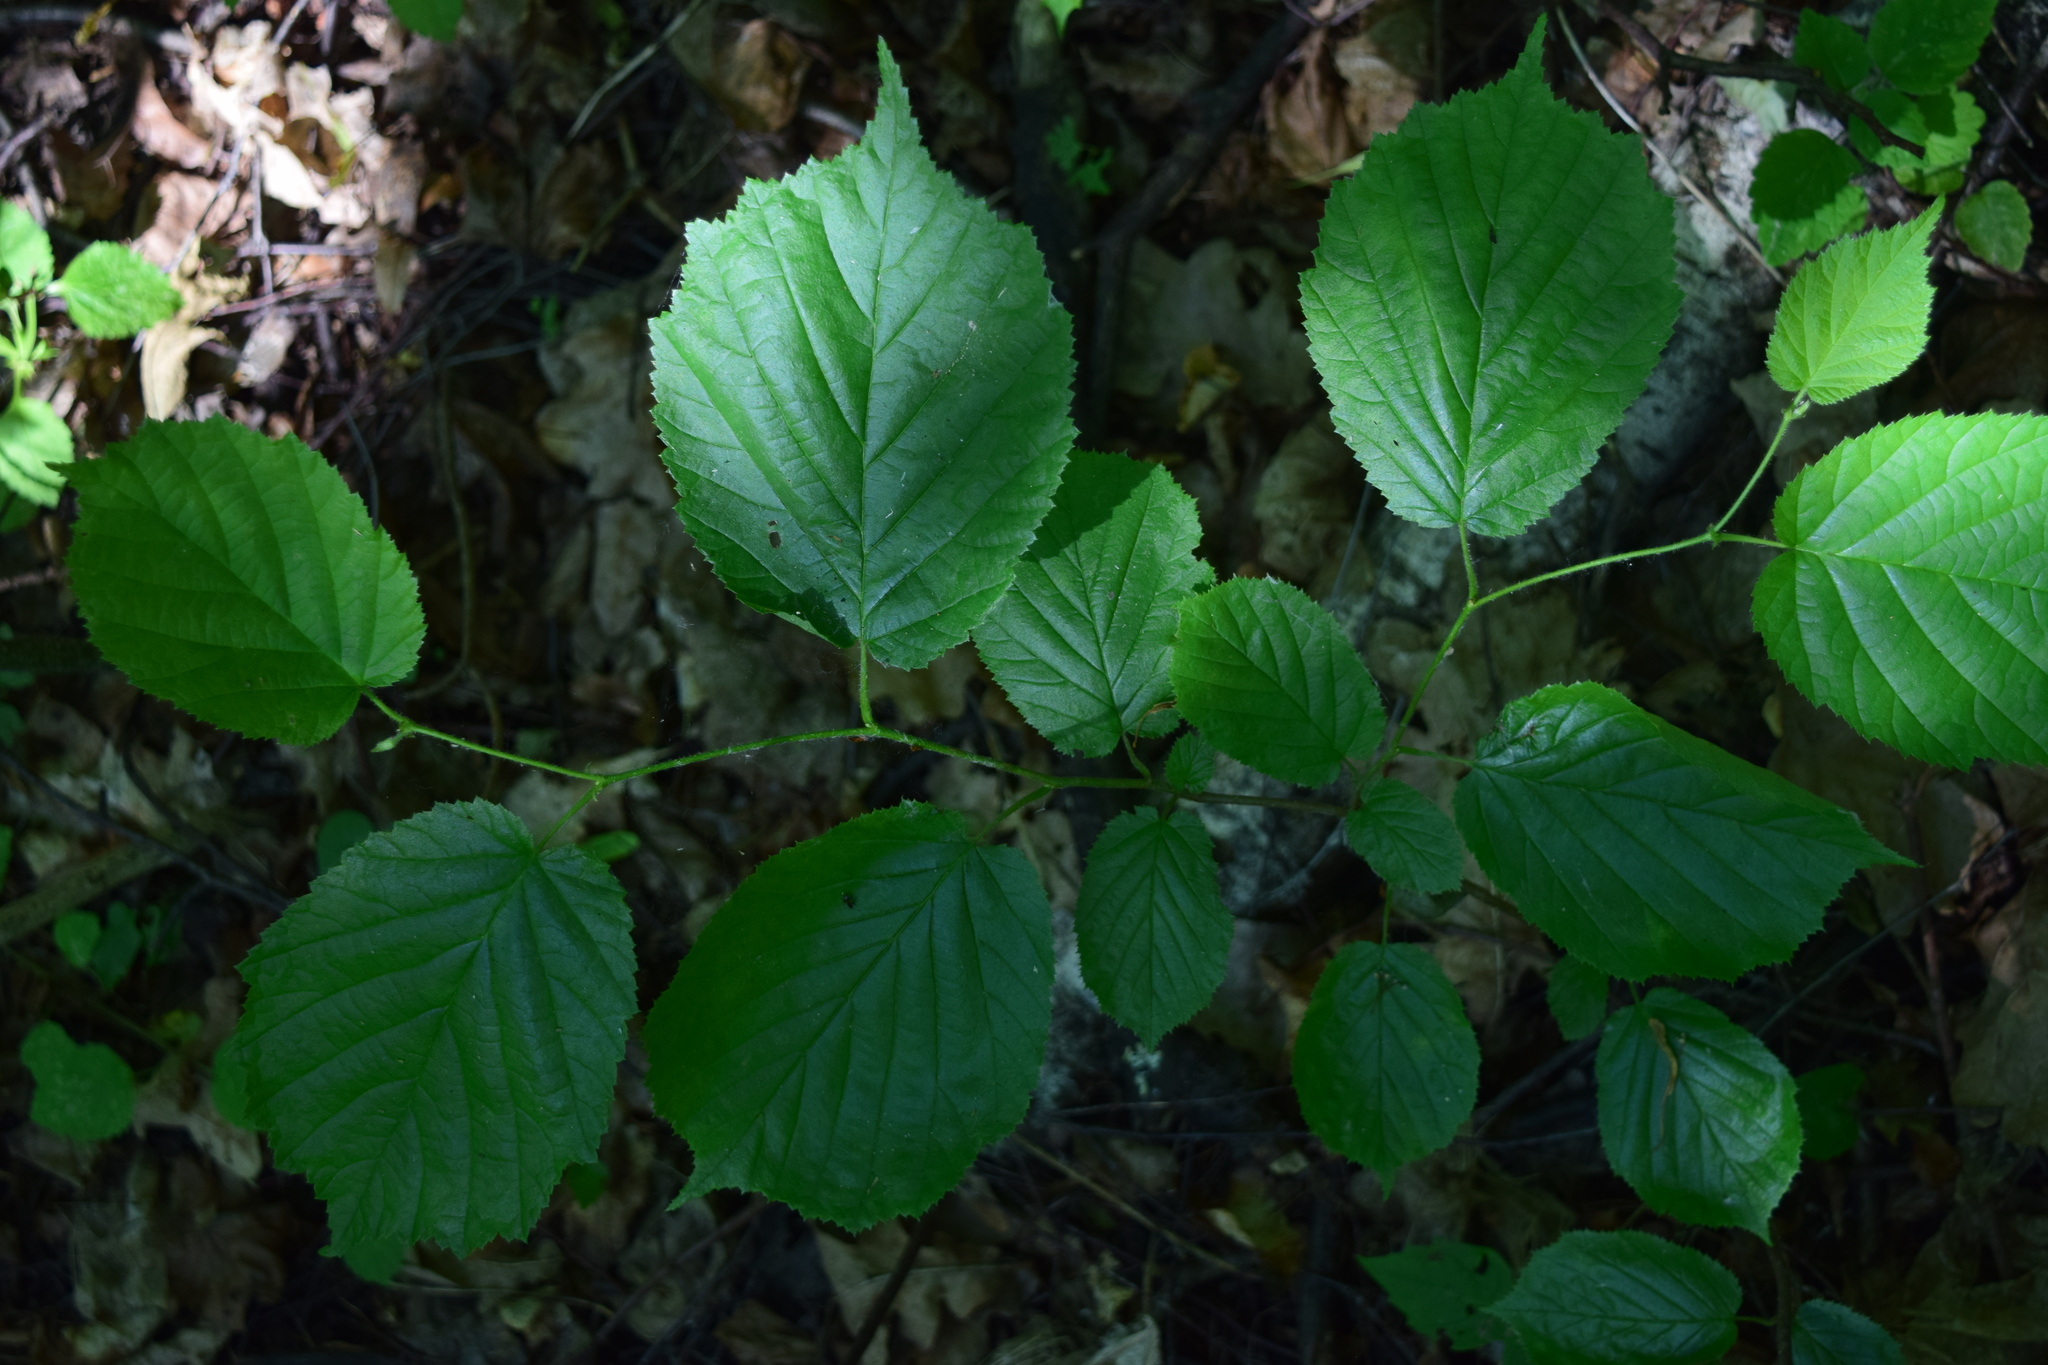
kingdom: Plantae
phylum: Tracheophyta
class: Magnoliopsida
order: Fagales
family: Betulaceae
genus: Corylus
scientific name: Corylus avellana
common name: European hazel
